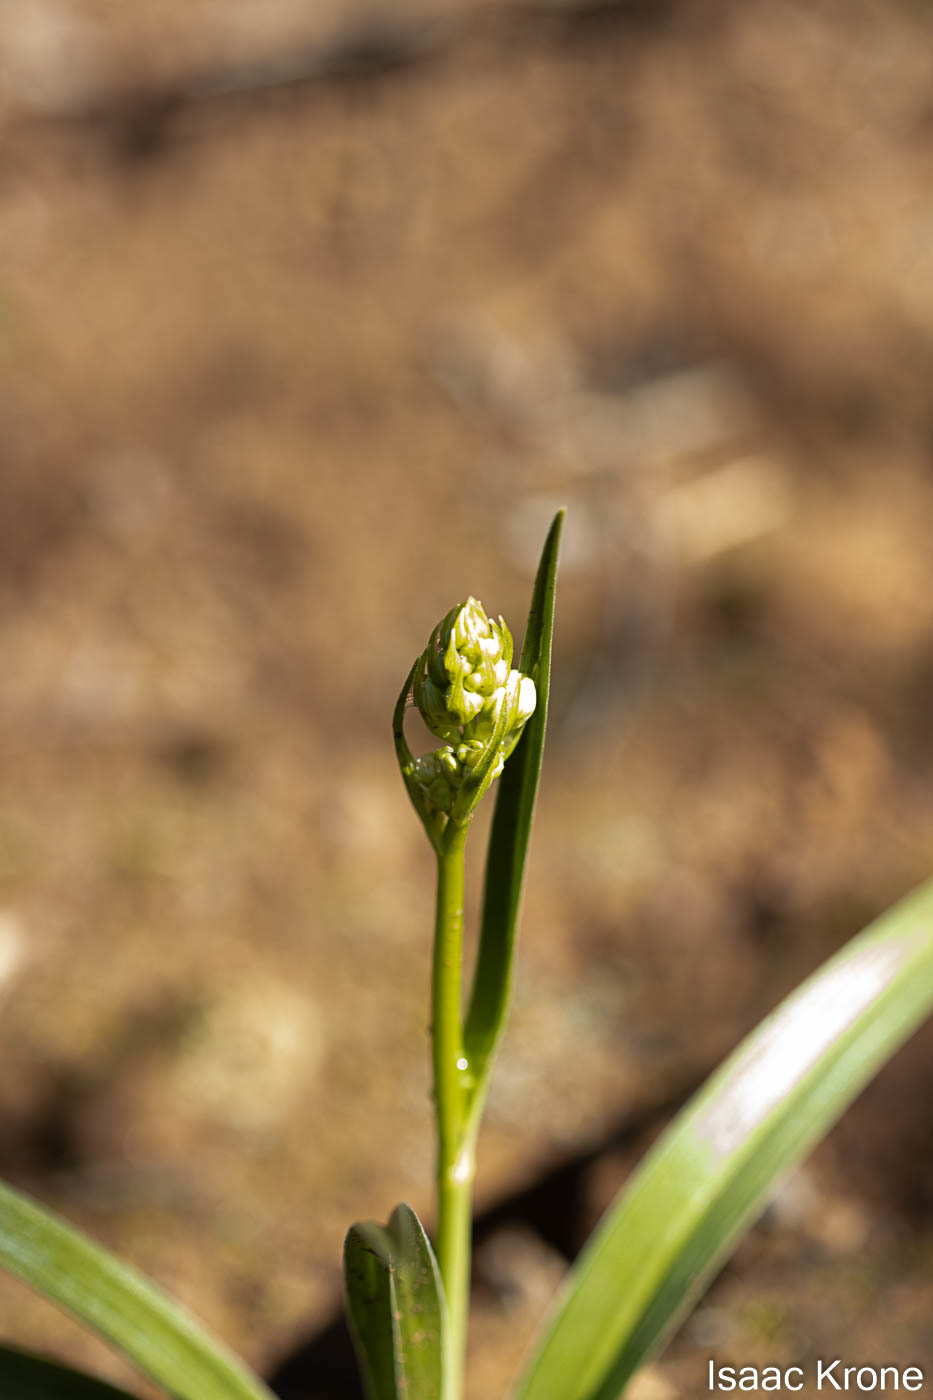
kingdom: Plantae
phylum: Tracheophyta
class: Liliopsida
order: Liliales
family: Melanthiaceae
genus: Toxicoscordion
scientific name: Toxicoscordion fremontii
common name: Fremont's death camas
